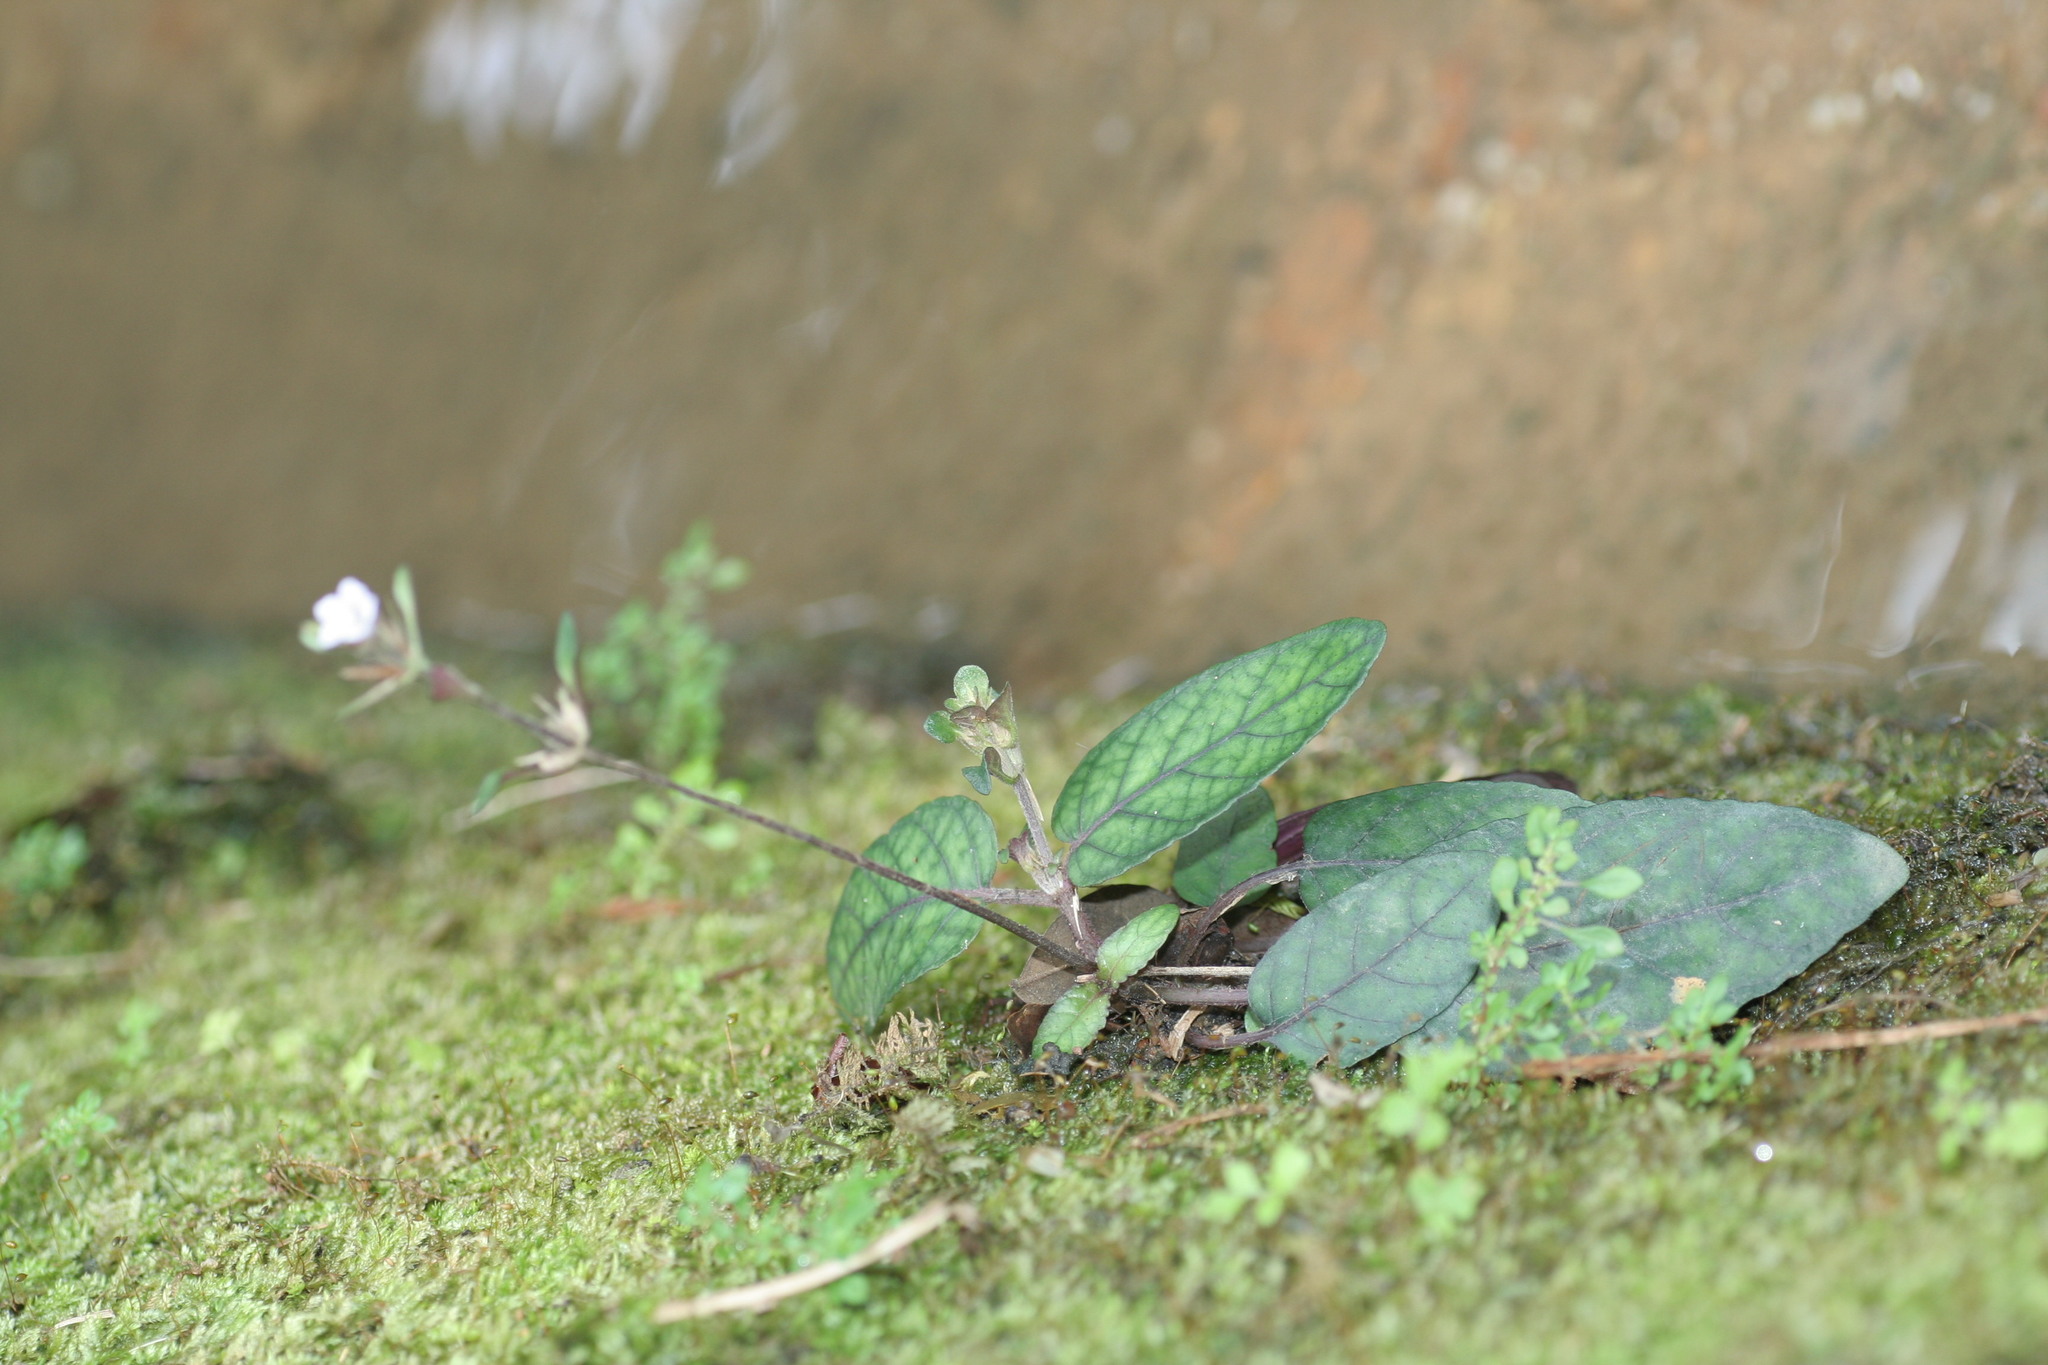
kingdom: Plantae
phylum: Tracheophyta
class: Magnoliopsida
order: Lamiales
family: Acanthaceae
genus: Strobilanthes
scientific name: Strobilanthes reptans
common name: Acanthaceae
